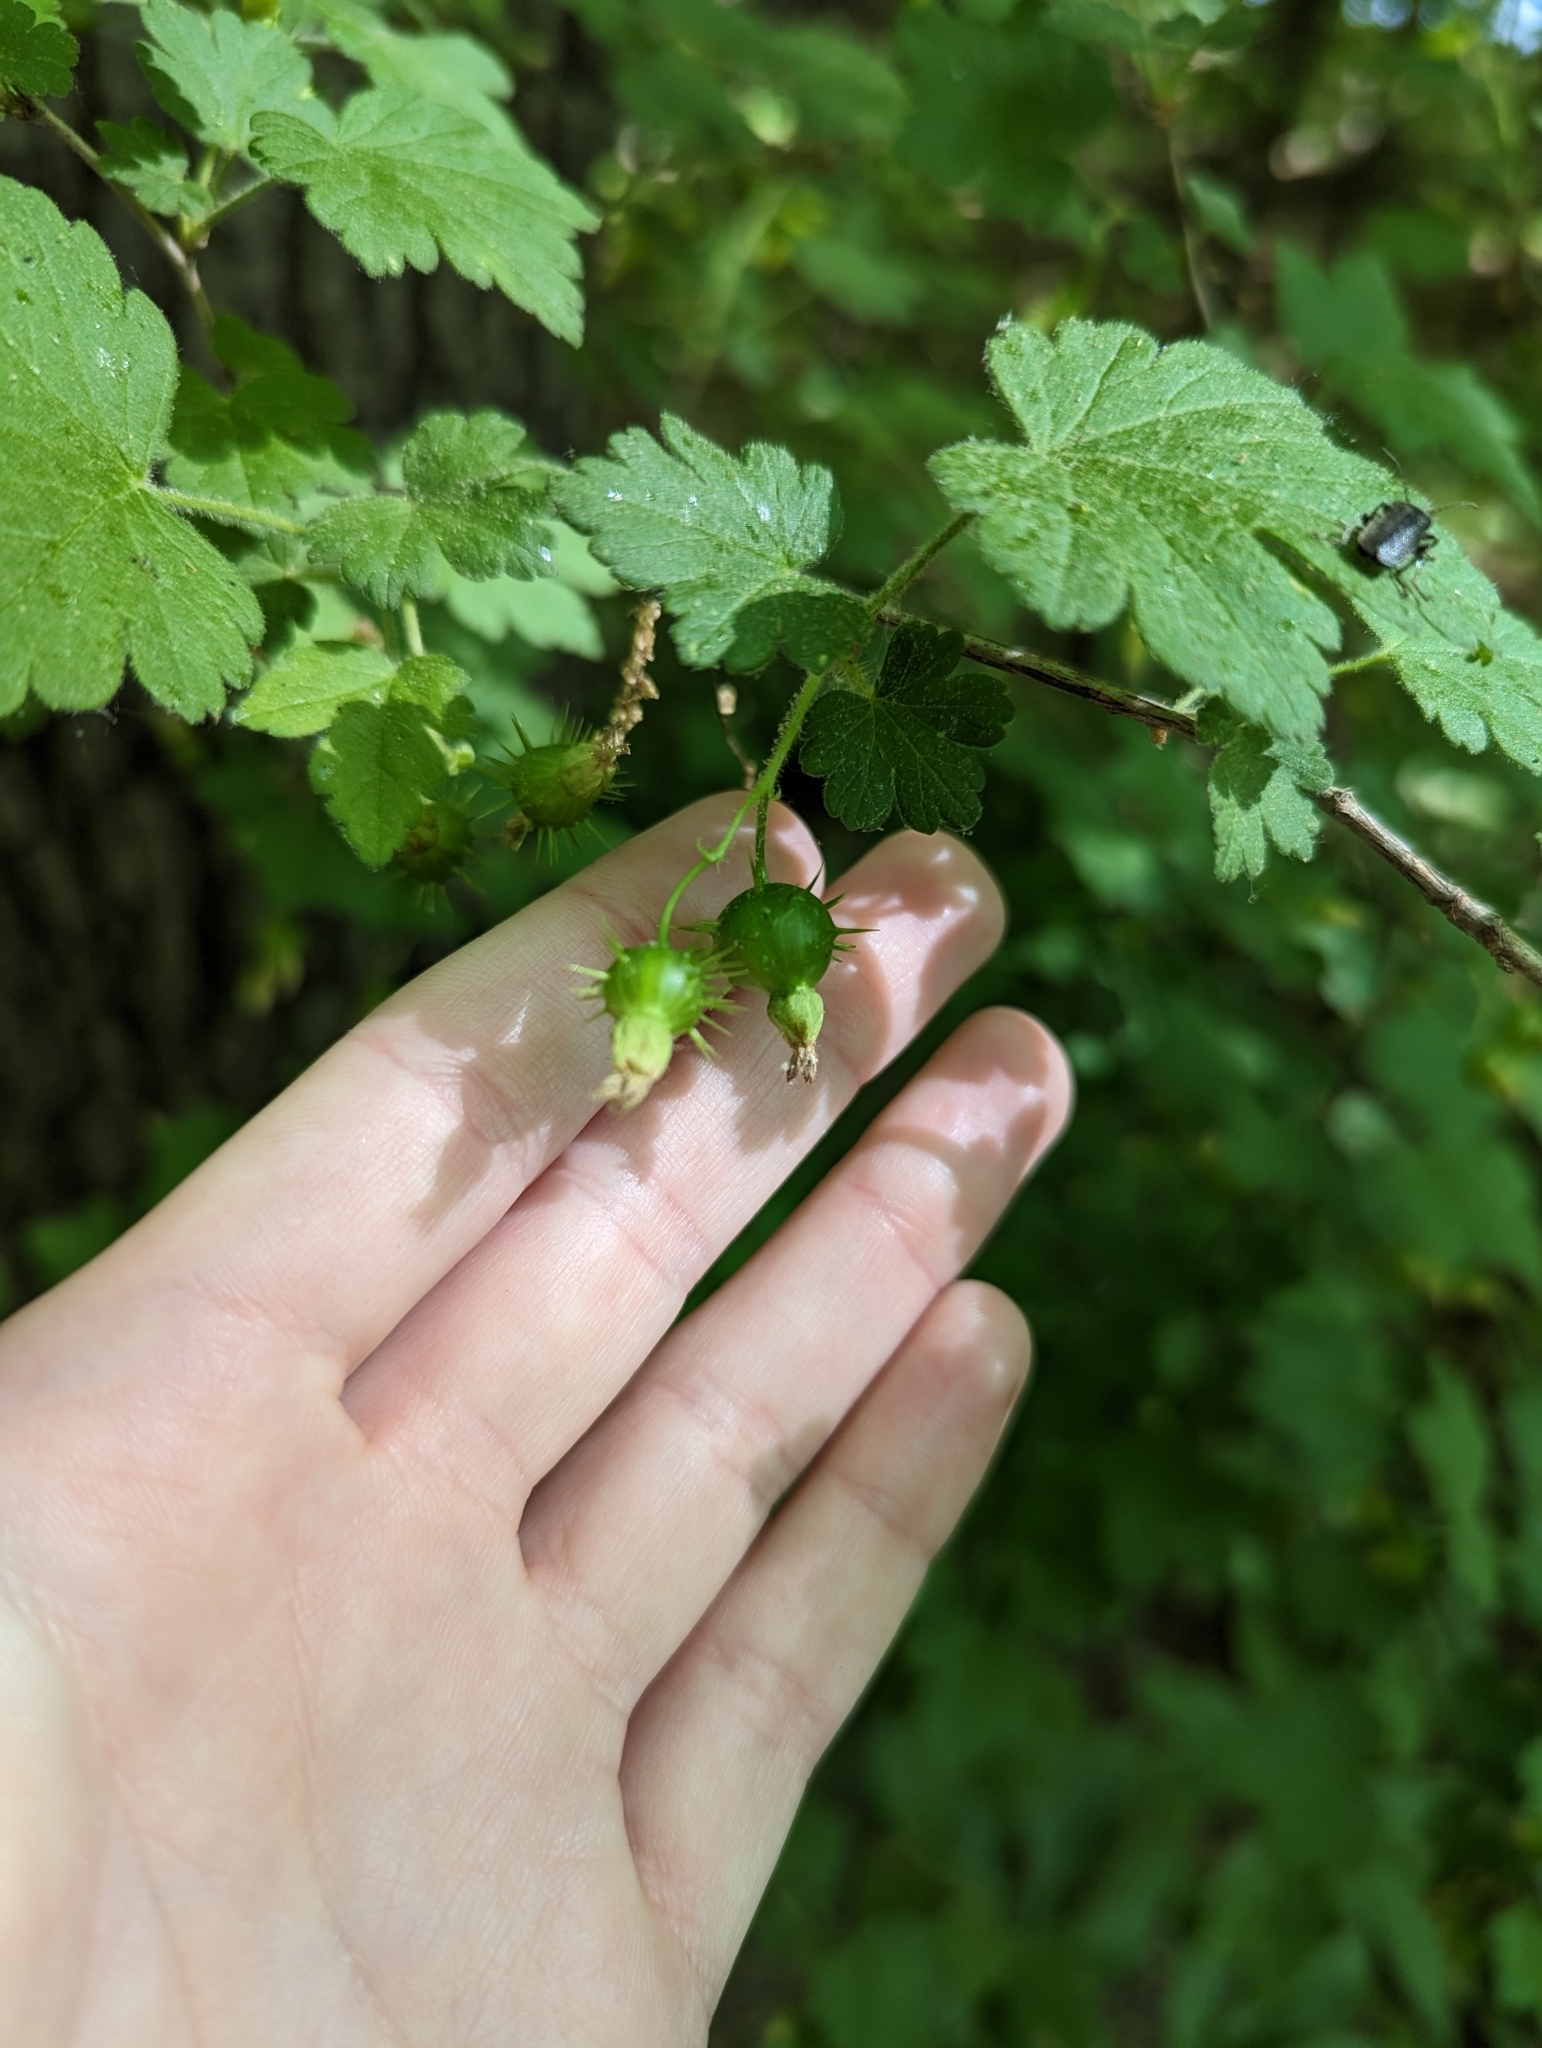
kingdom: Plantae
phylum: Tracheophyta
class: Magnoliopsida
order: Saxifragales
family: Grossulariaceae
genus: Ribes
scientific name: Ribes cynosbati
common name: American gooseberry
